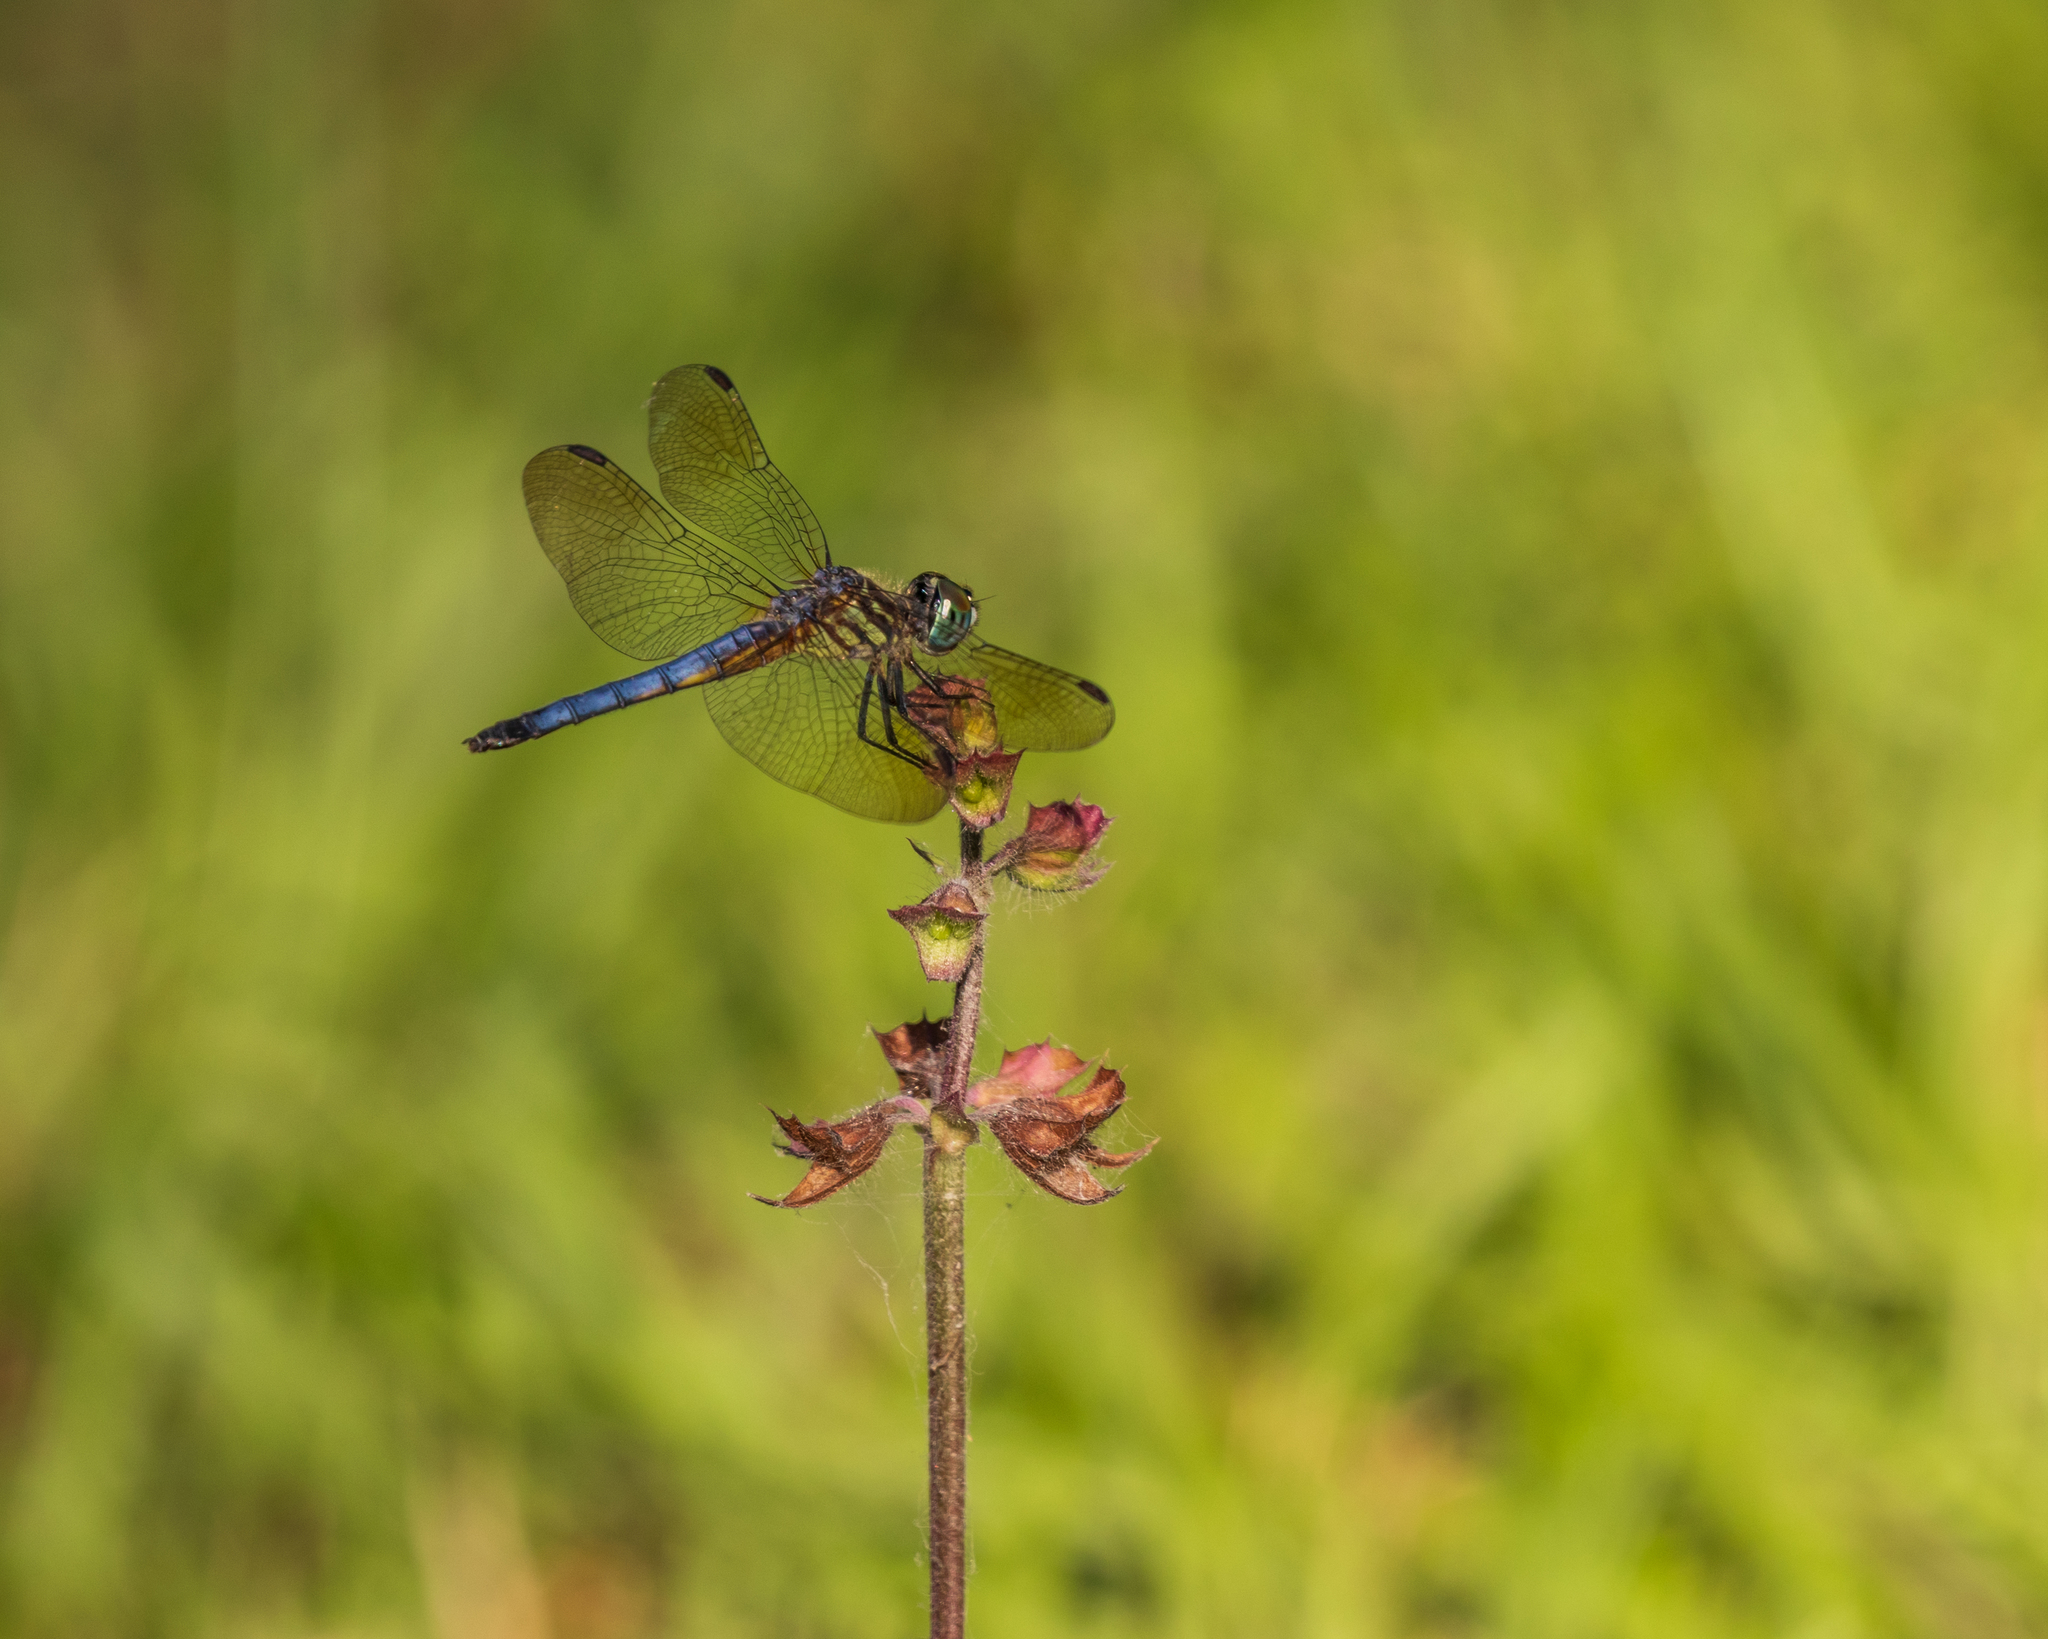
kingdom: Animalia
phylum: Arthropoda
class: Insecta
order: Odonata
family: Libellulidae
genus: Pachydiplax
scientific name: Pachydiplax longipennis
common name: Blue dasher
